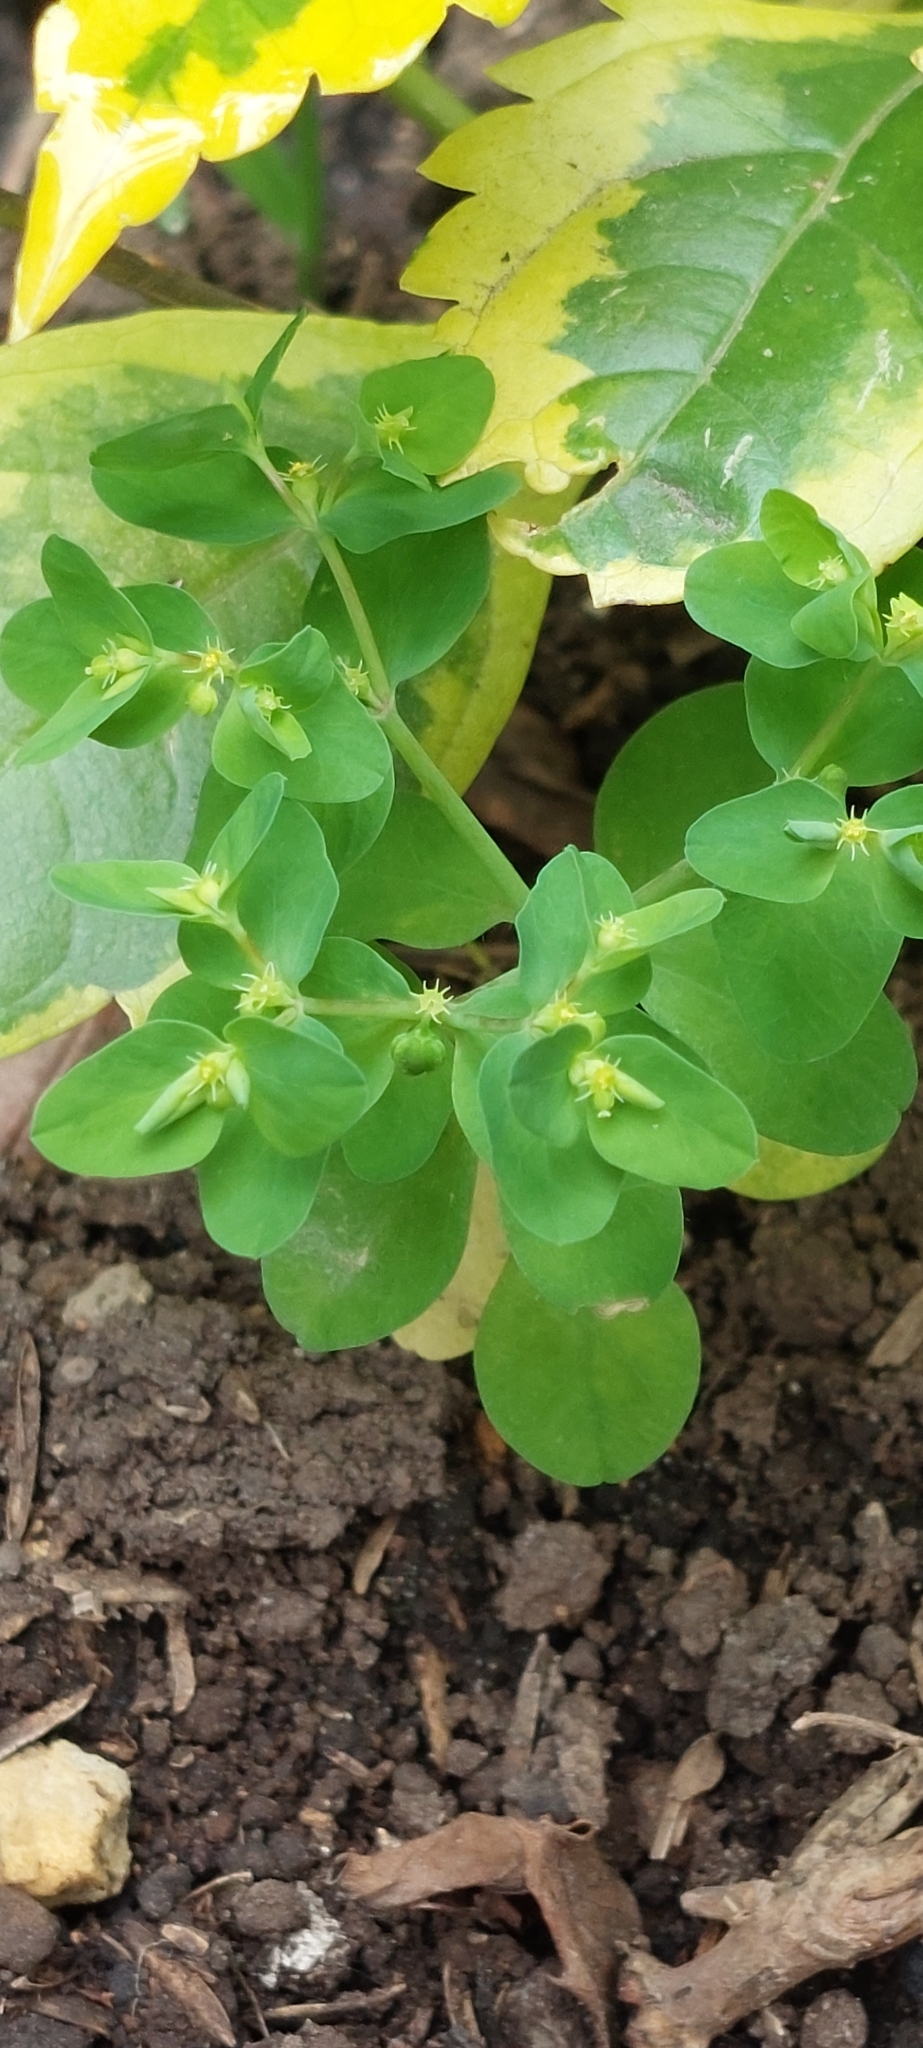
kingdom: Plantae
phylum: Tracheophyta
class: Magnoliopsida
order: Malpighiales
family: Euphorbiaceae
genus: Euphorbia
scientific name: Euphorbia peplus
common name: Petty spurge
